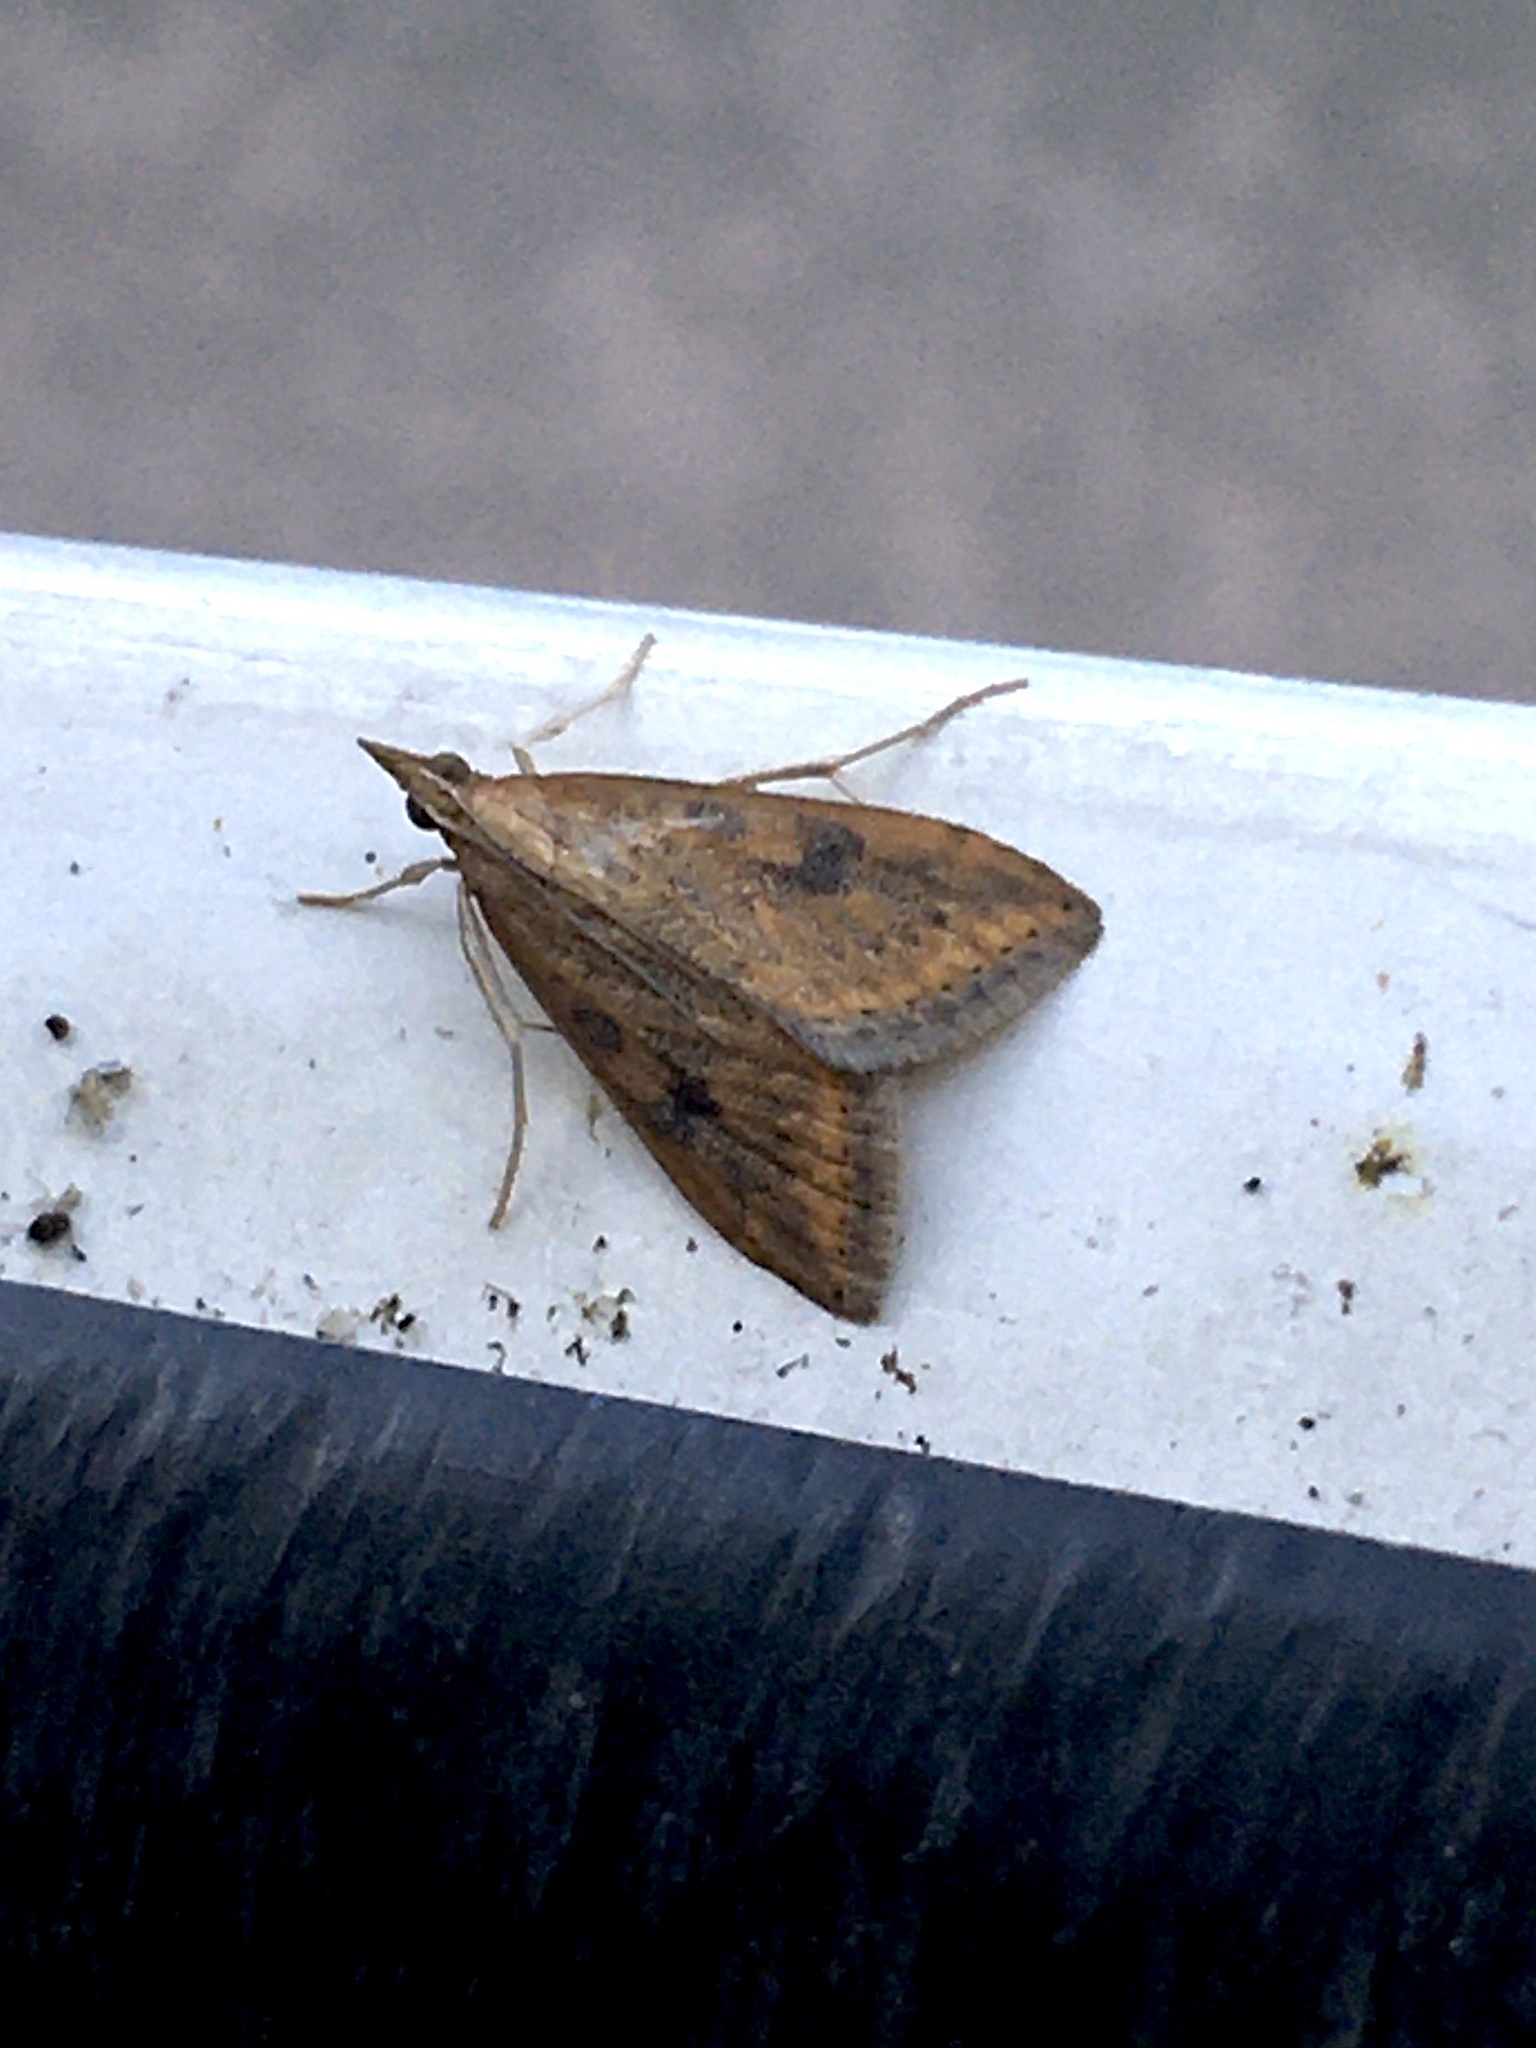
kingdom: Animalia
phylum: Arthropoda
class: Insecta
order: Lepidoptera
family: Crambidae
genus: Udea
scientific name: Udea ferrugalis
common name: Rusty dot
